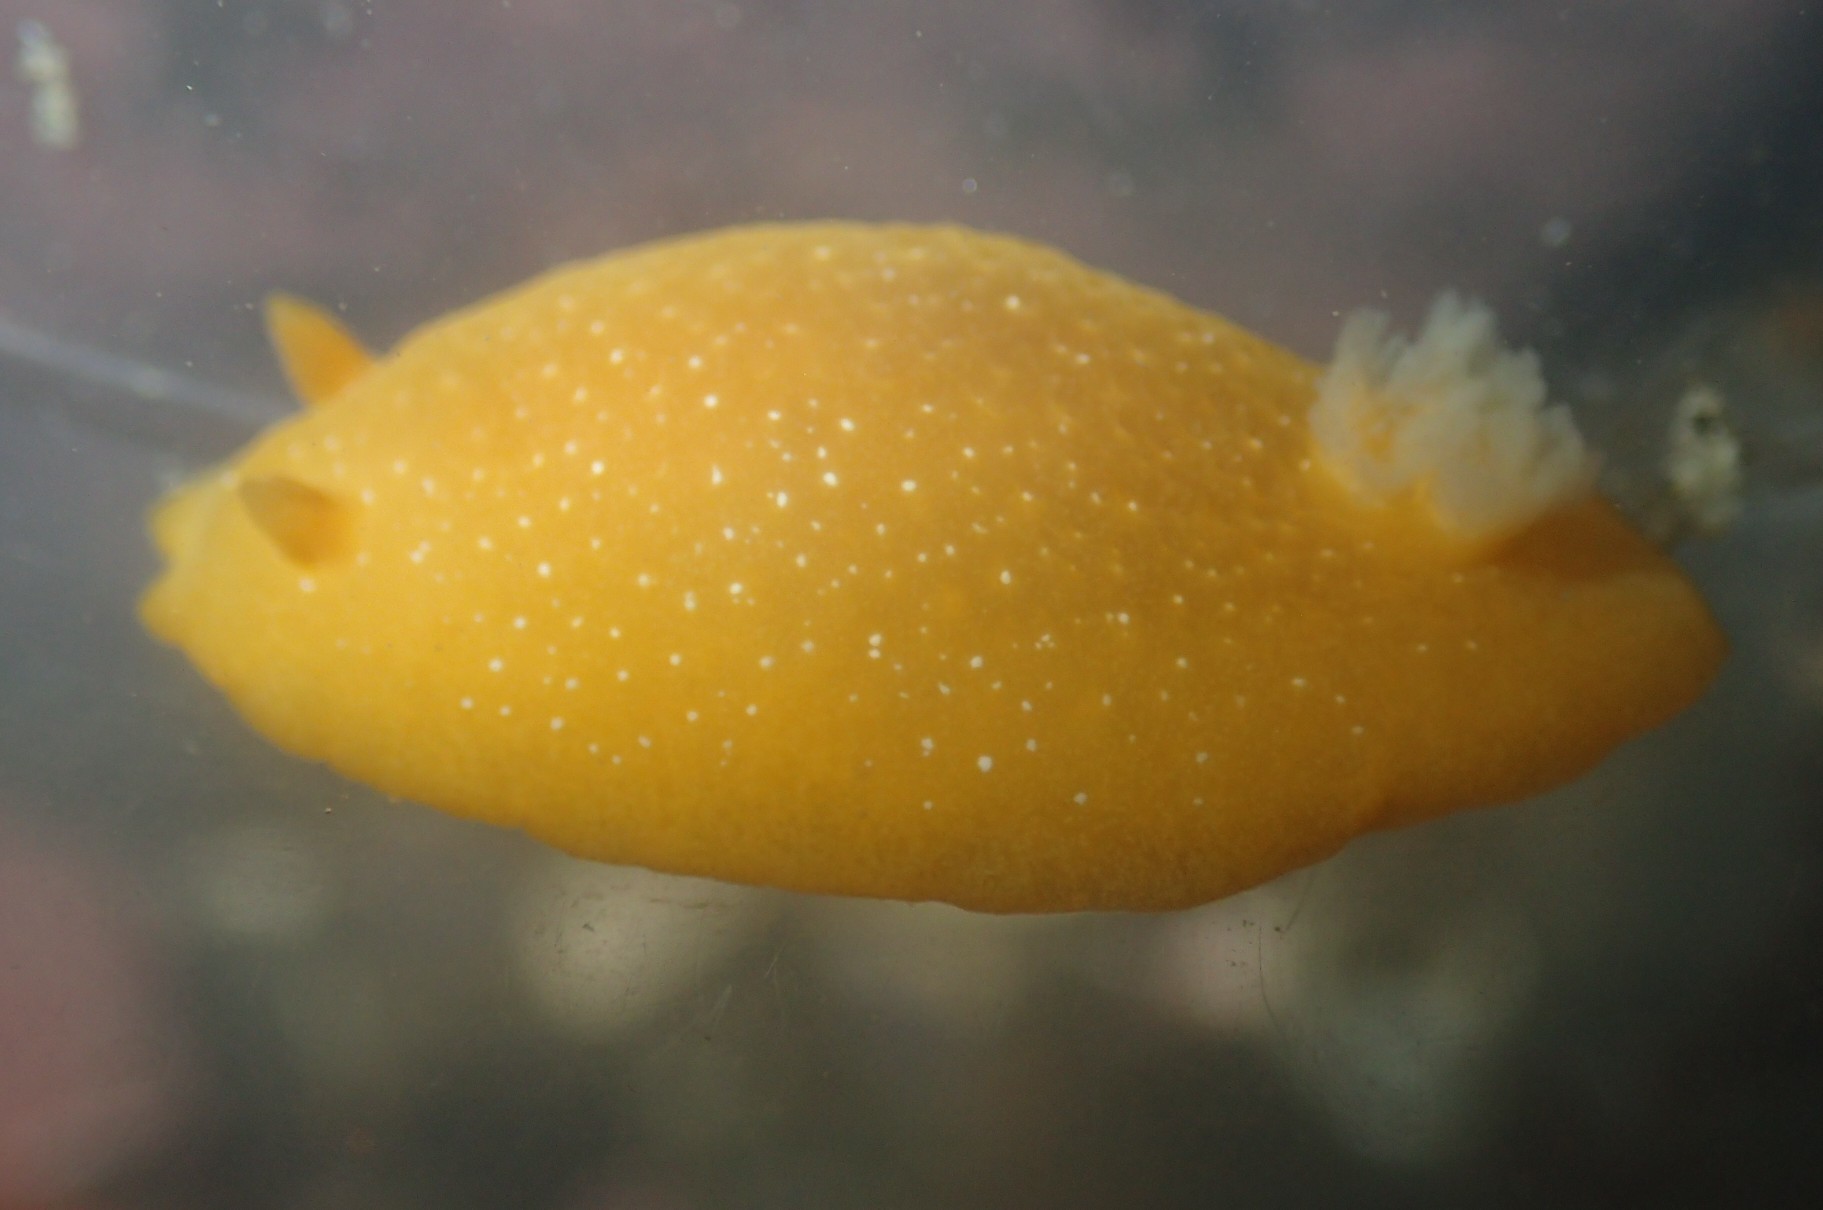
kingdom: Animalia
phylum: Mollusca
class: Gastropoda
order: Nudibranchia
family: Dendrodorididae
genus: Doriopsilla
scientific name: Doriopsilla fulva
